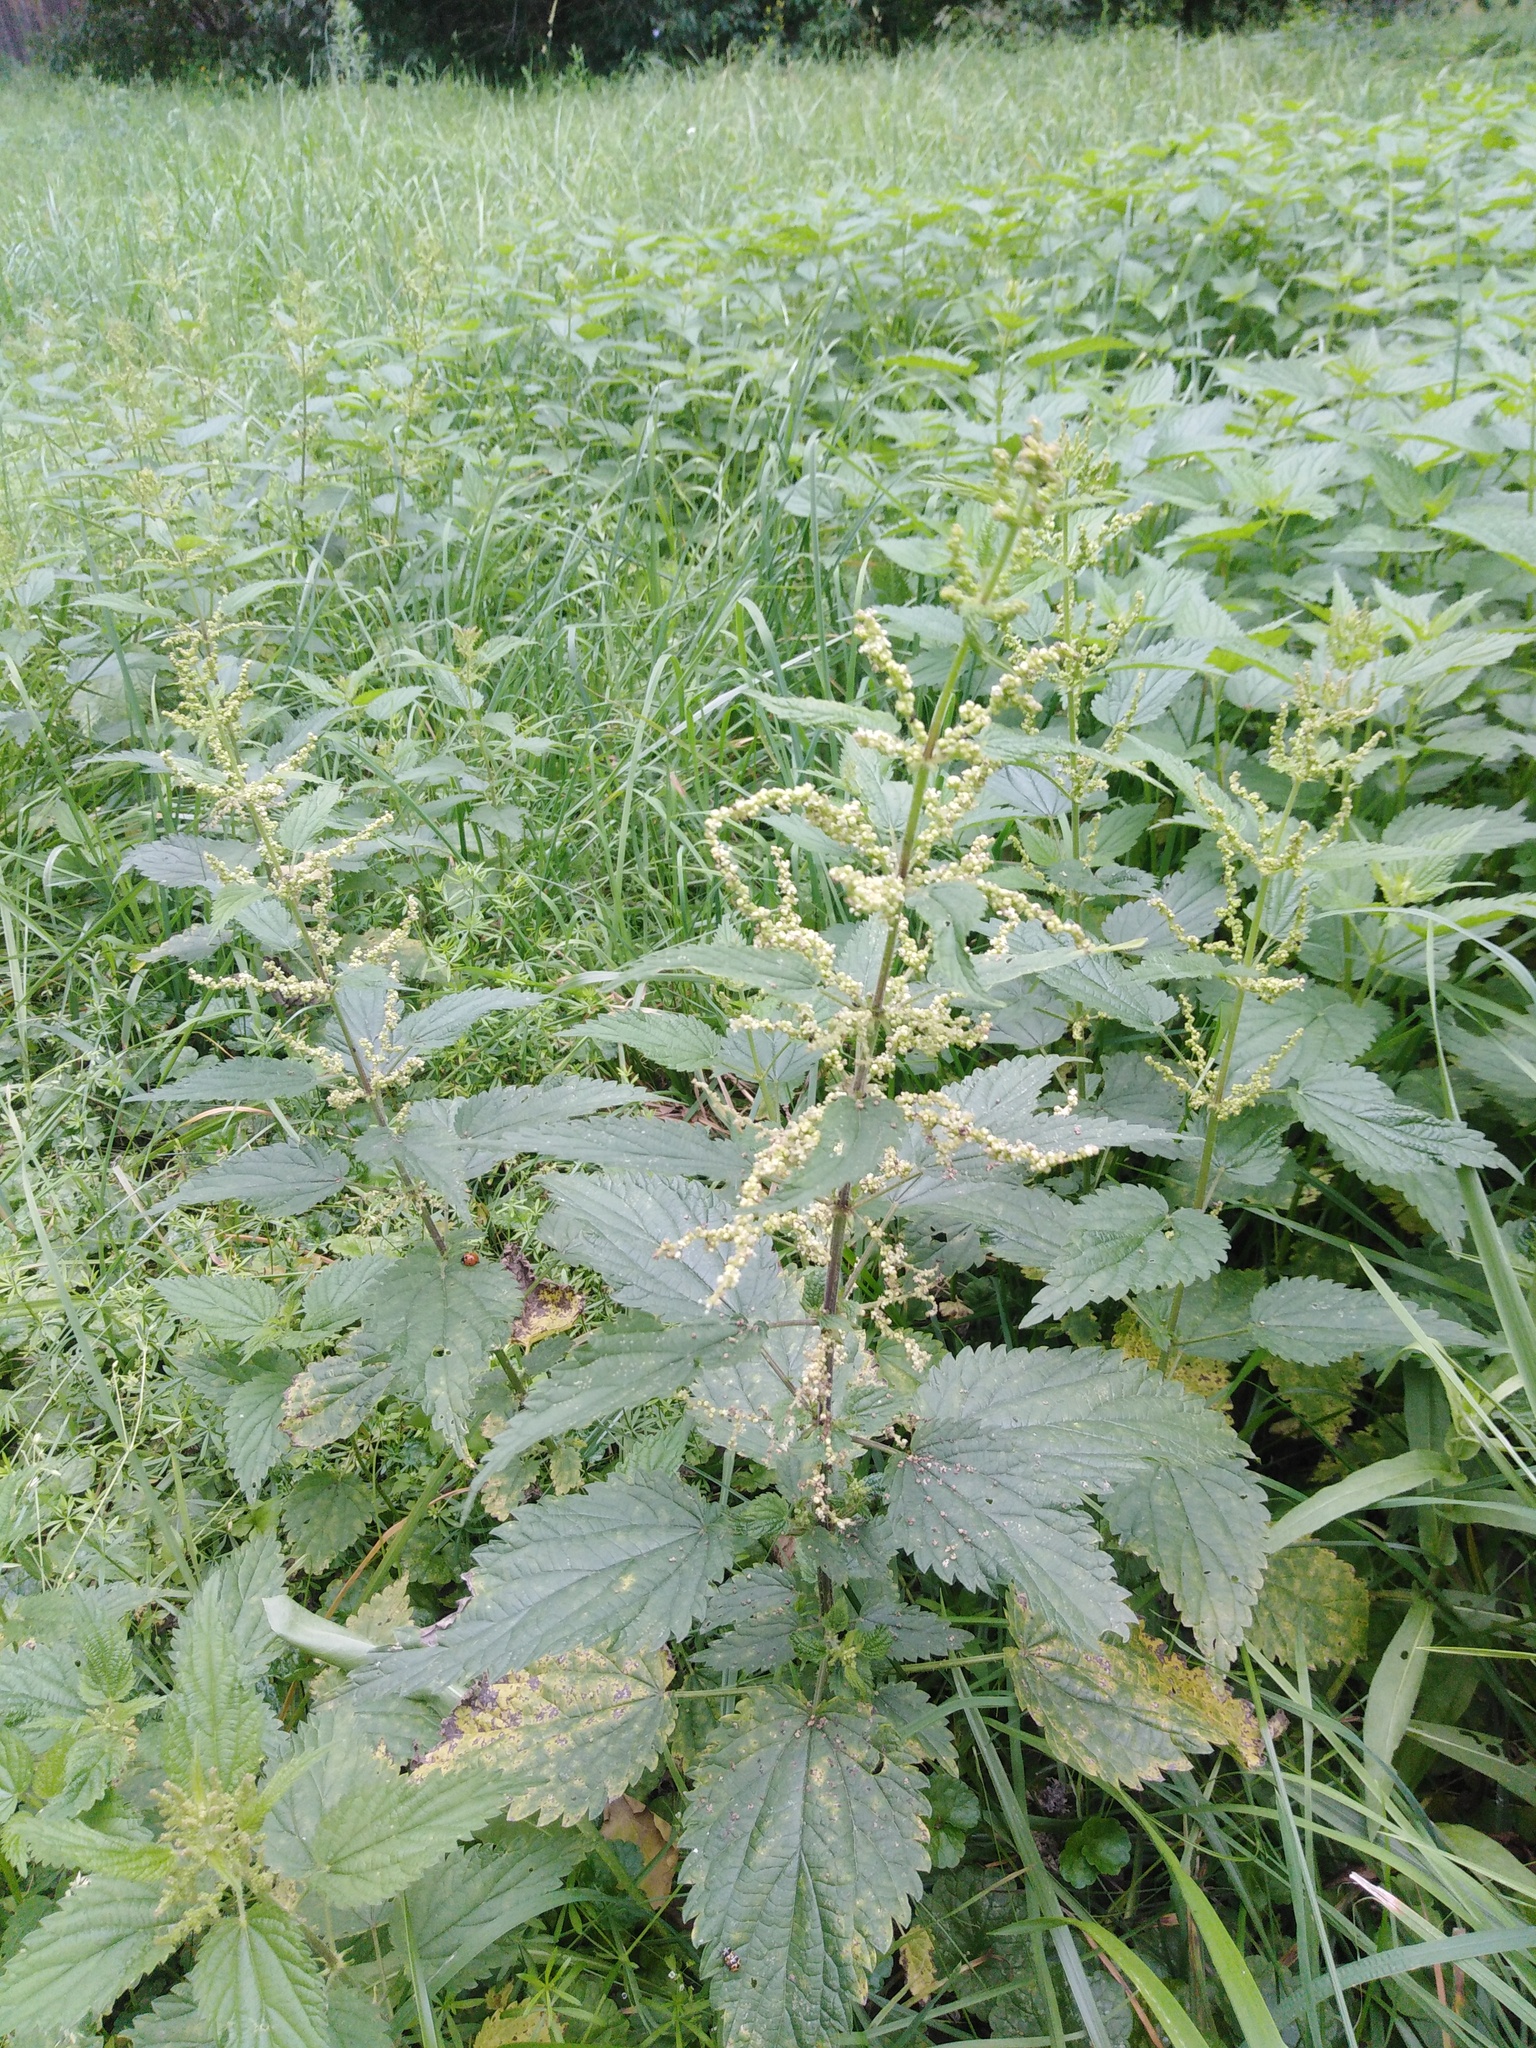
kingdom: Plantae
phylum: Tracheophyta
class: Magnoliopsida
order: Rosales
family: Urticaceae
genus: Urtica
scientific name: Urtica dioica
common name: Common nettle
